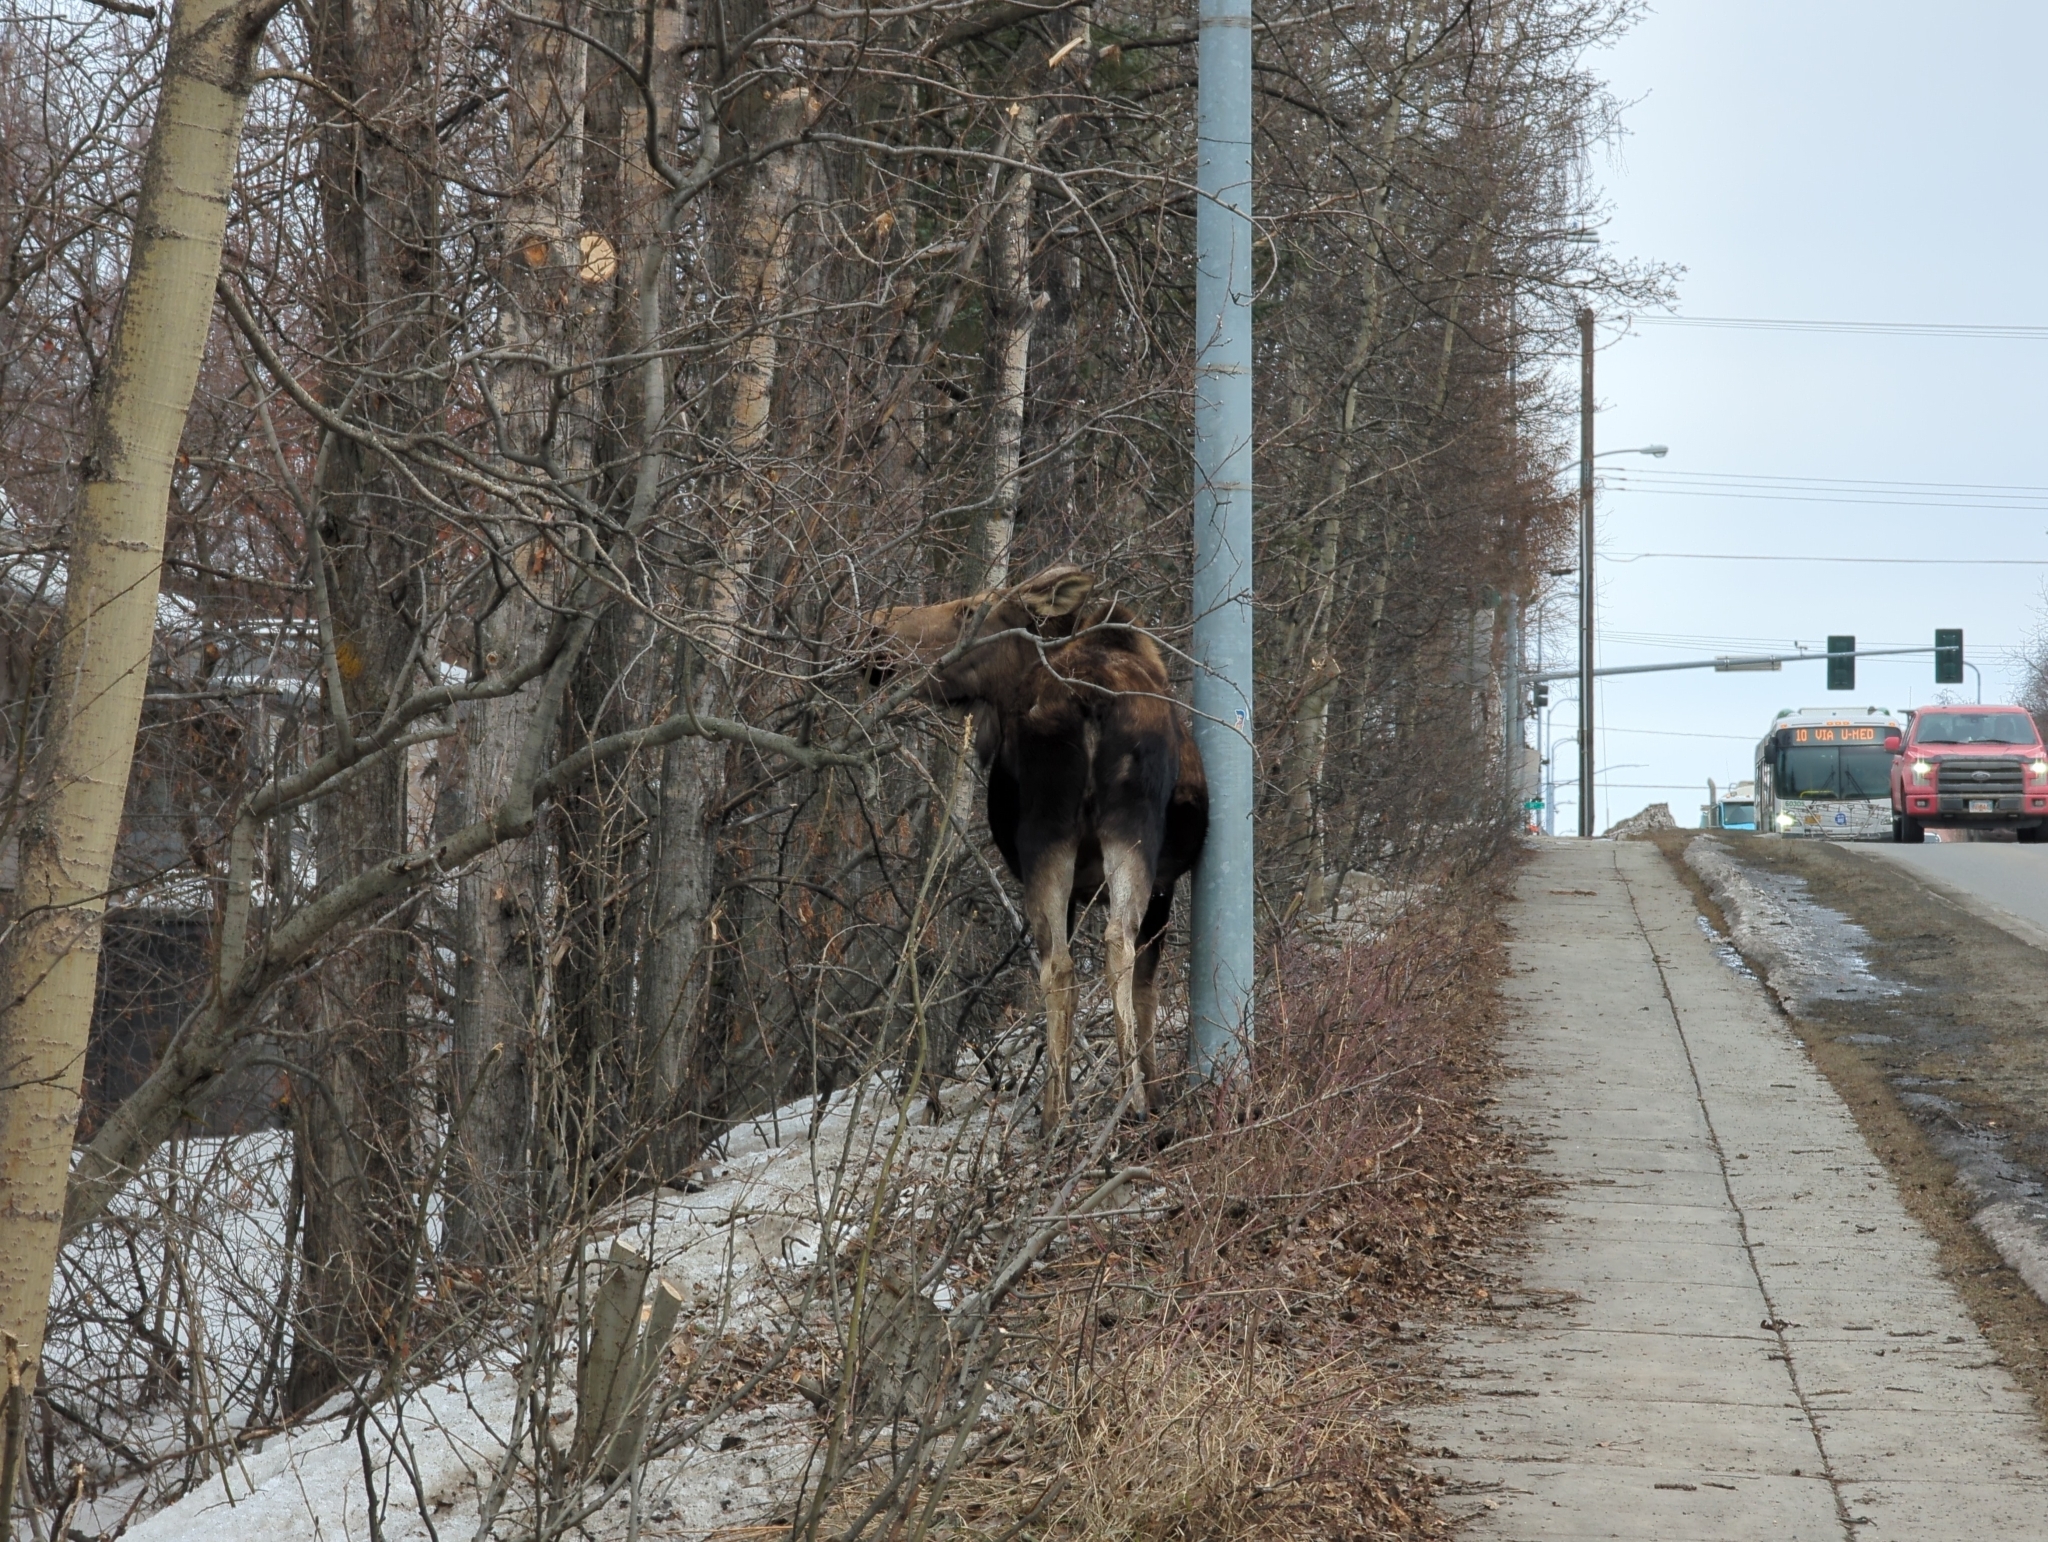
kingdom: Animalia
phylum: Chordata
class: Mammalia
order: Artiodactyla
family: Cervidae
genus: Alces
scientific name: Alces alces
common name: Moose
